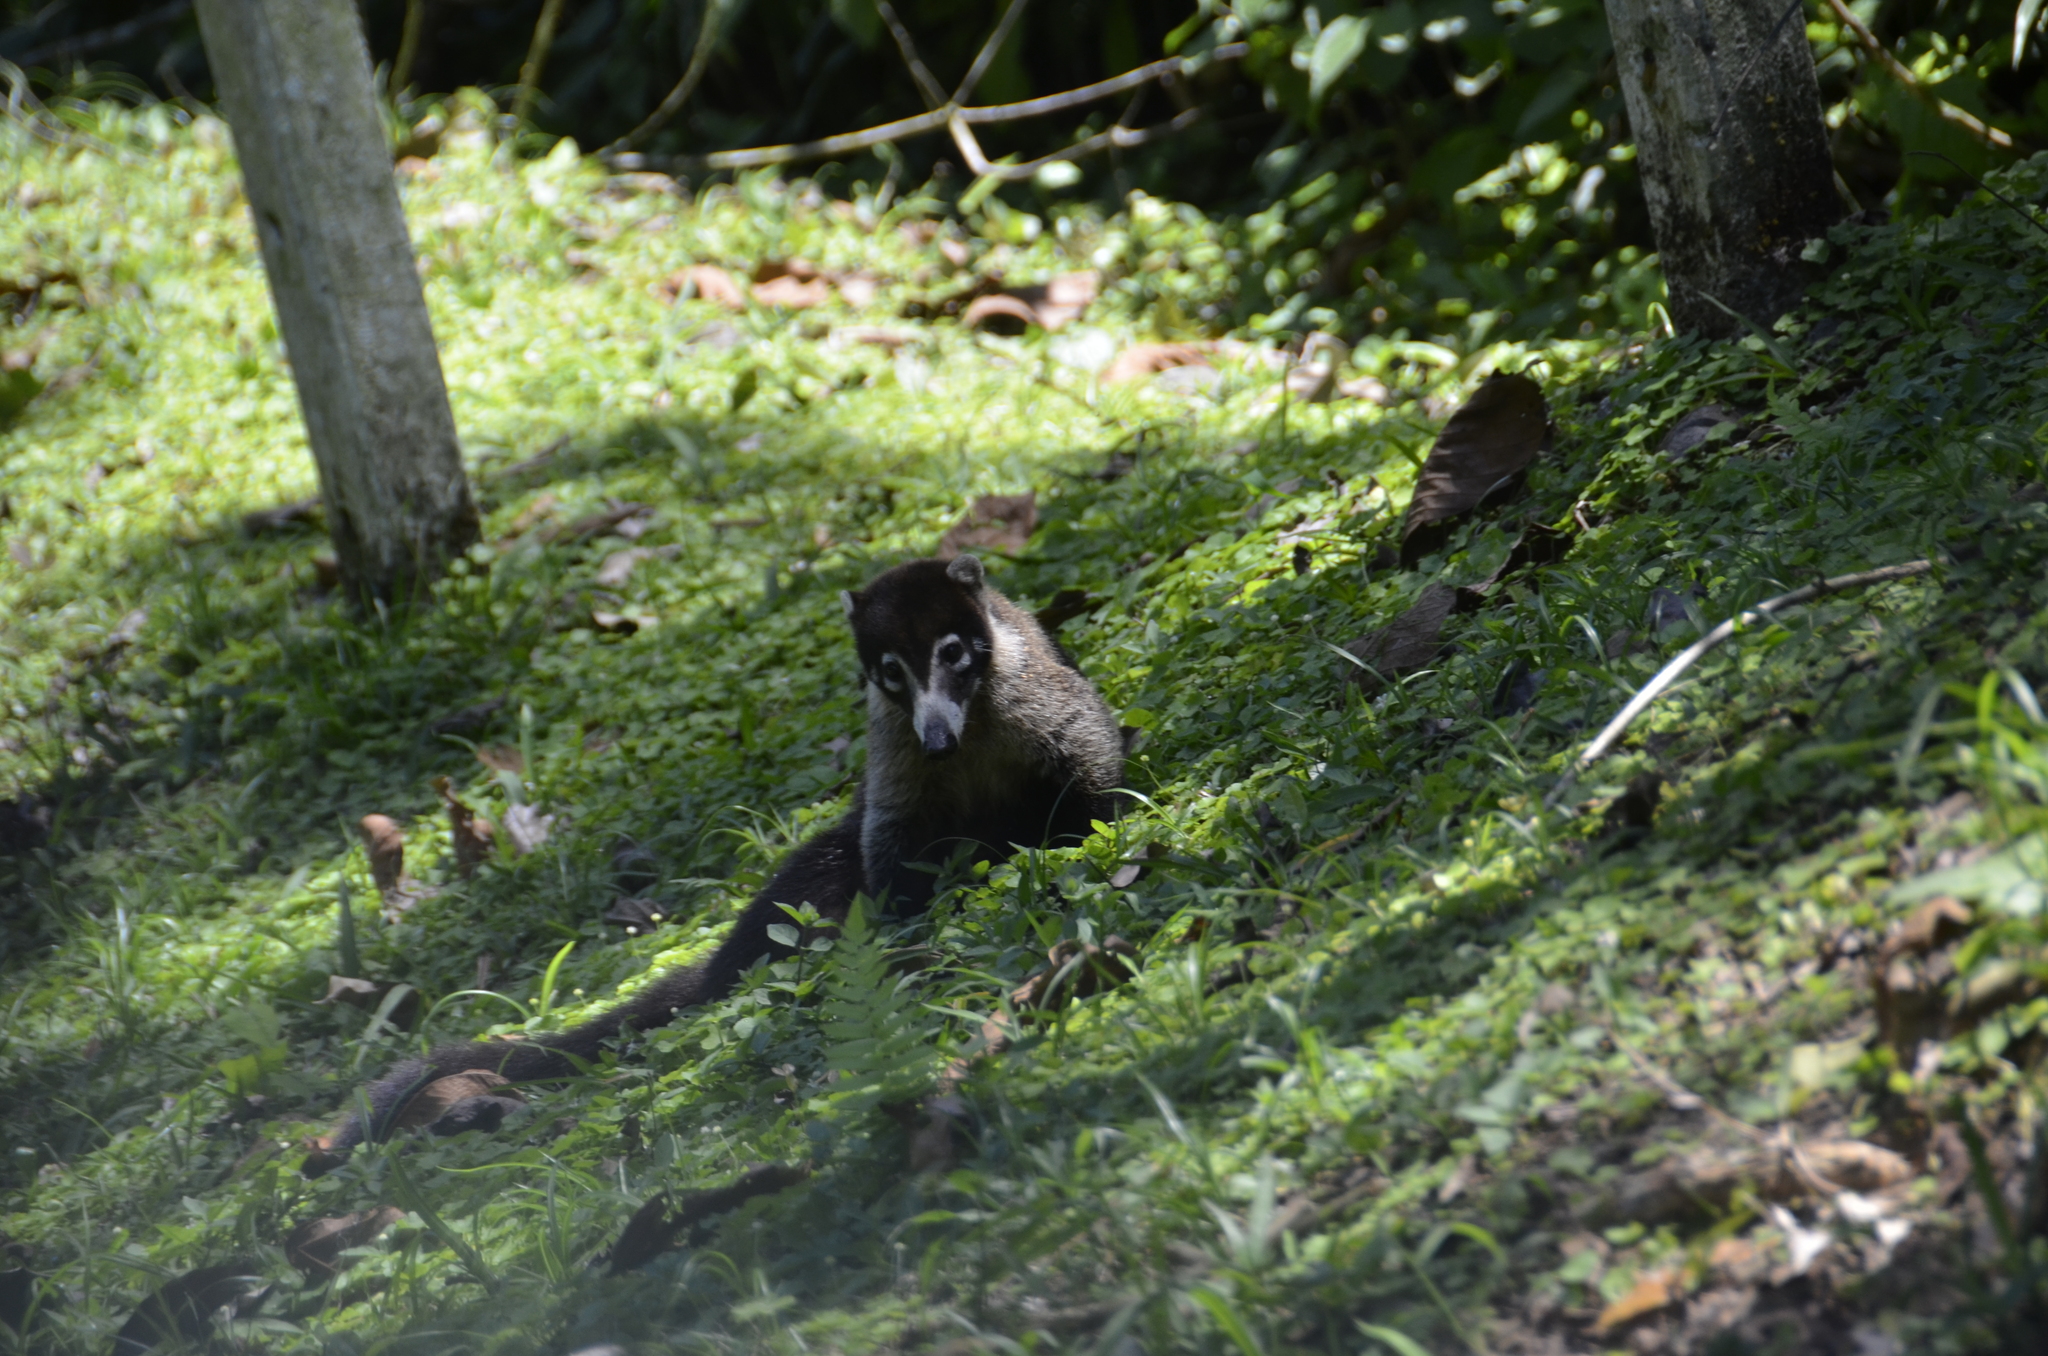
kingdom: Animalia
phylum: Chordata
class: Mammalia
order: Carnivora
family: Procyonidae
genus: Nasua
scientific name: Nasua narica
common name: White-nosed coati
